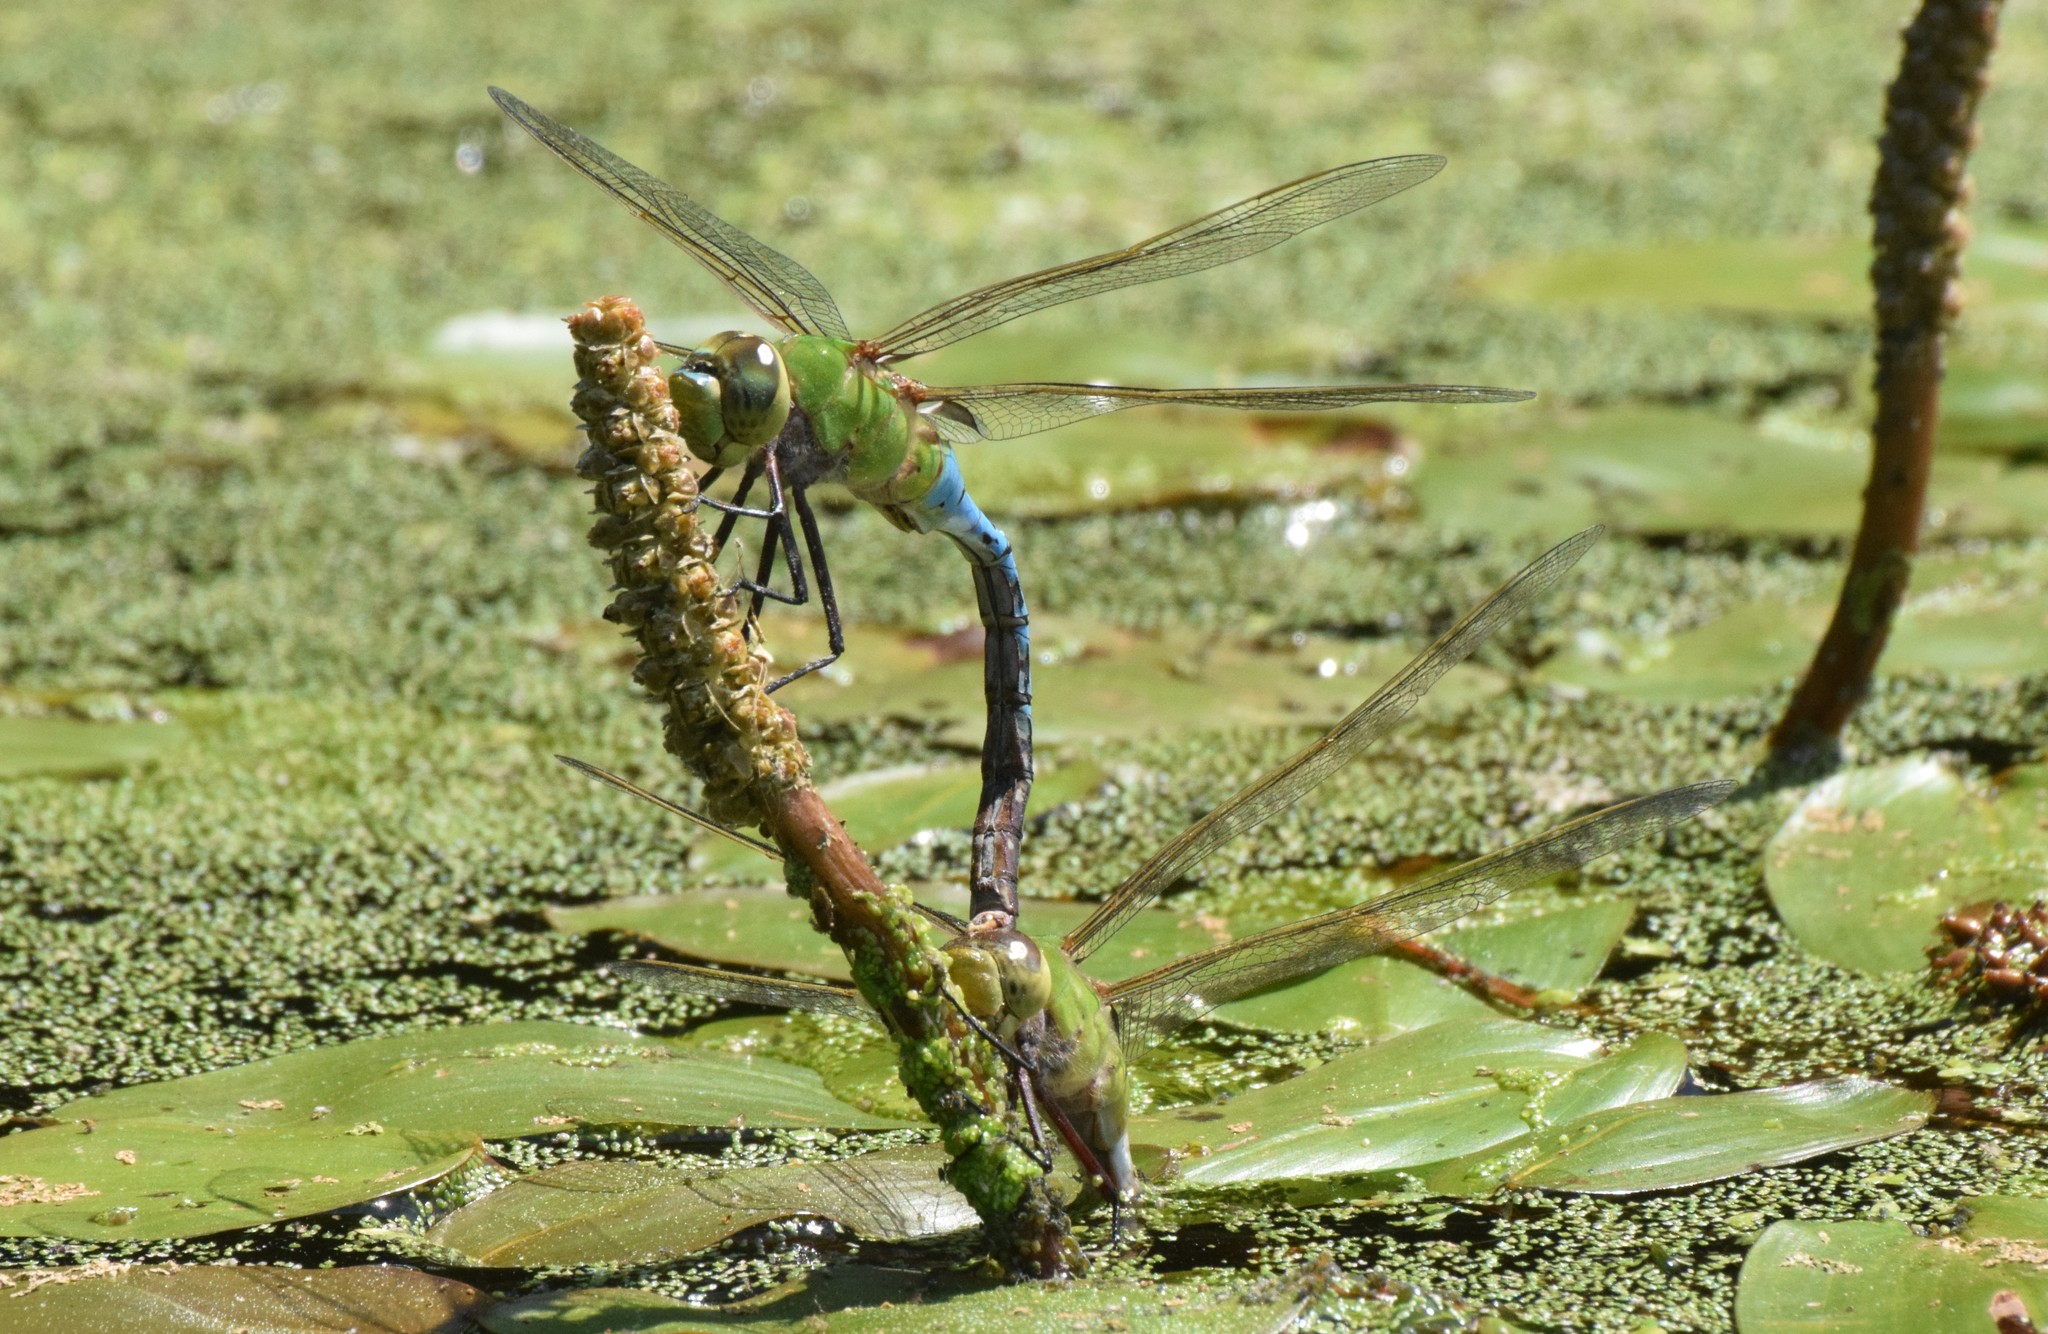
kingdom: Animalia
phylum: Arthropoda
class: Insecta
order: Odonata
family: Aeshnidae
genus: Anax
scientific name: Anax junius
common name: Common green darner
